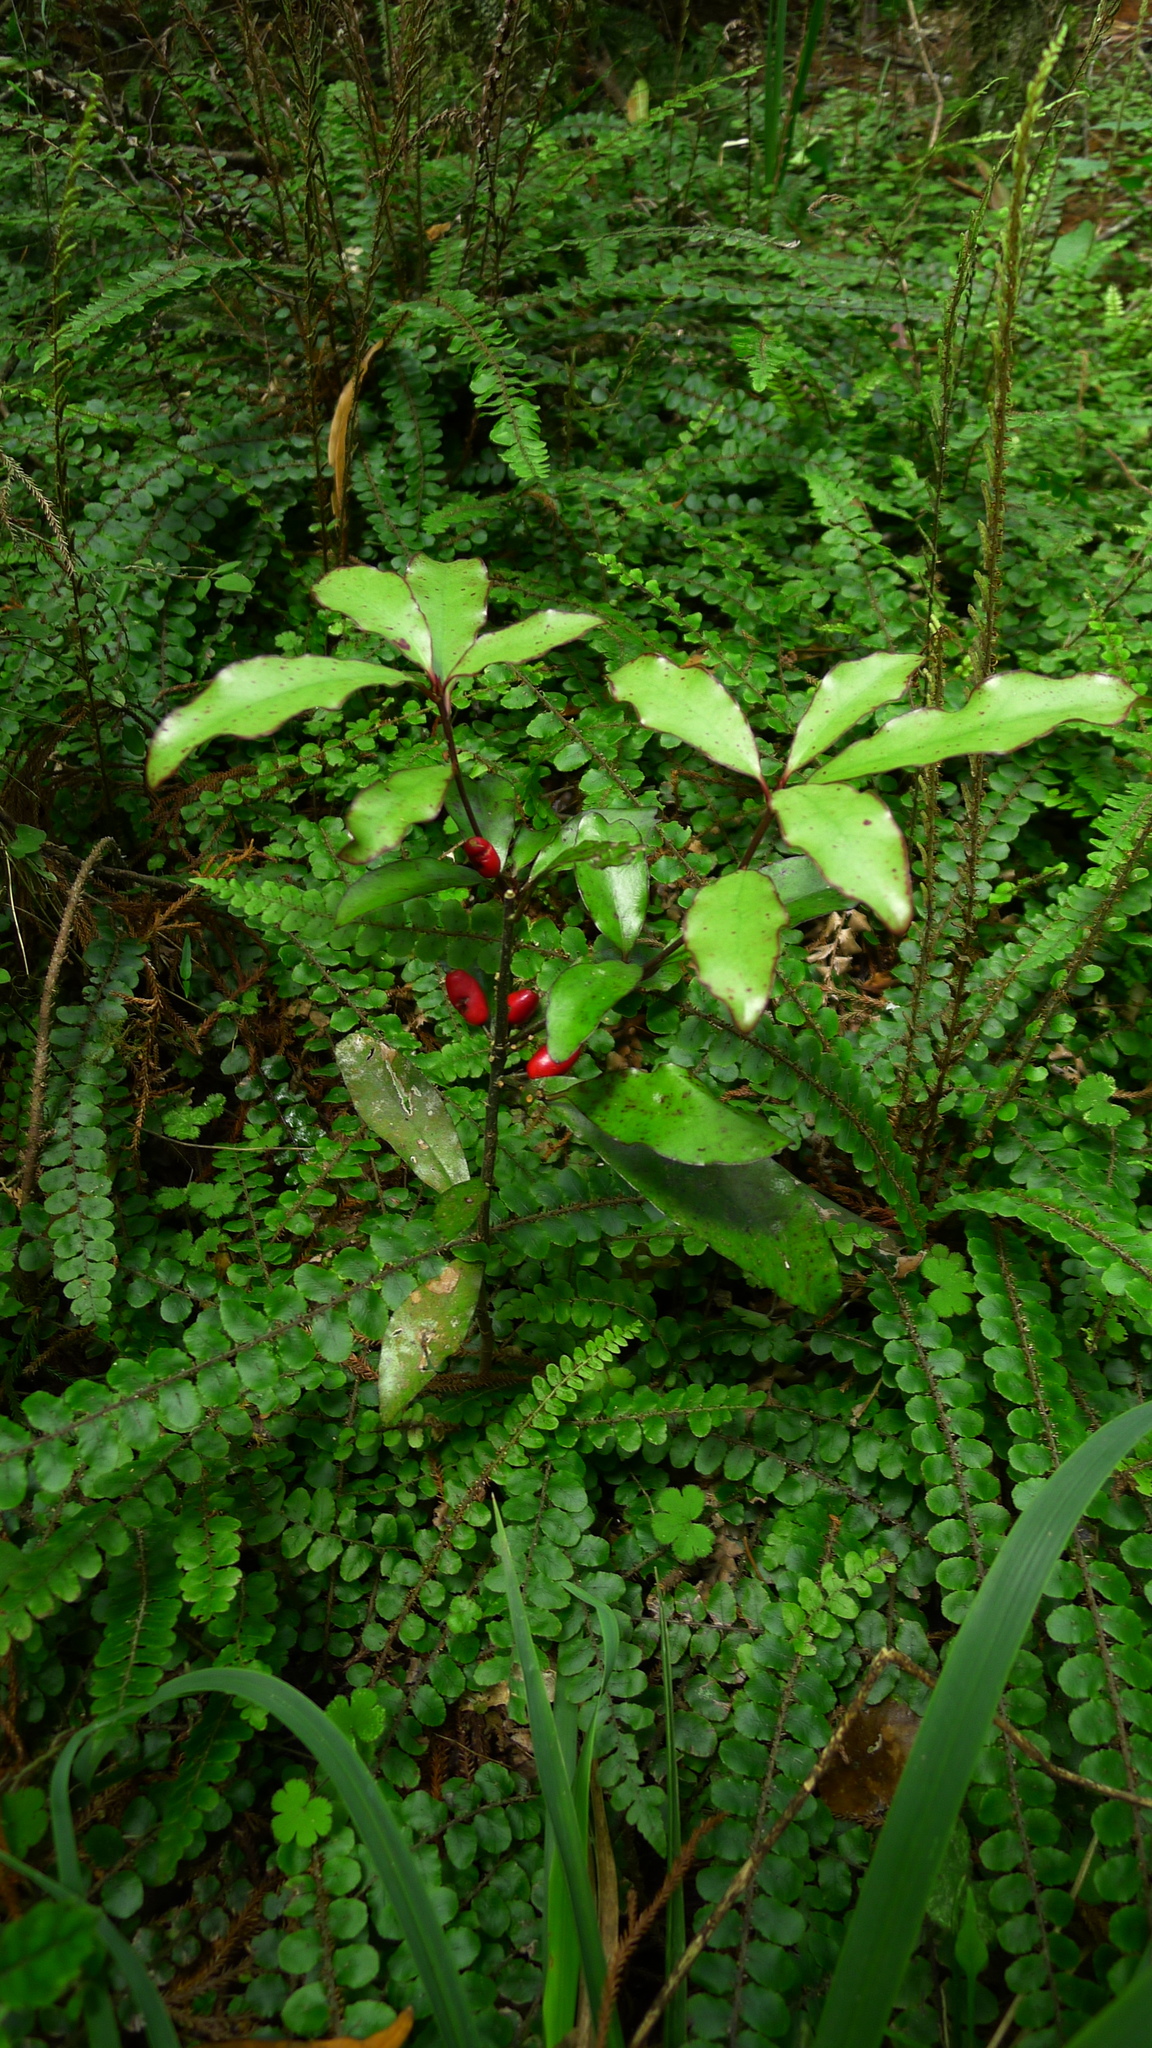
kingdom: Plantae
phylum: Tracheophyta
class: Magnoliopsida
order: Asterales
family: Alseuosmiaceae
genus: Alseuosmia
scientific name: Alseuosmia pusilla
